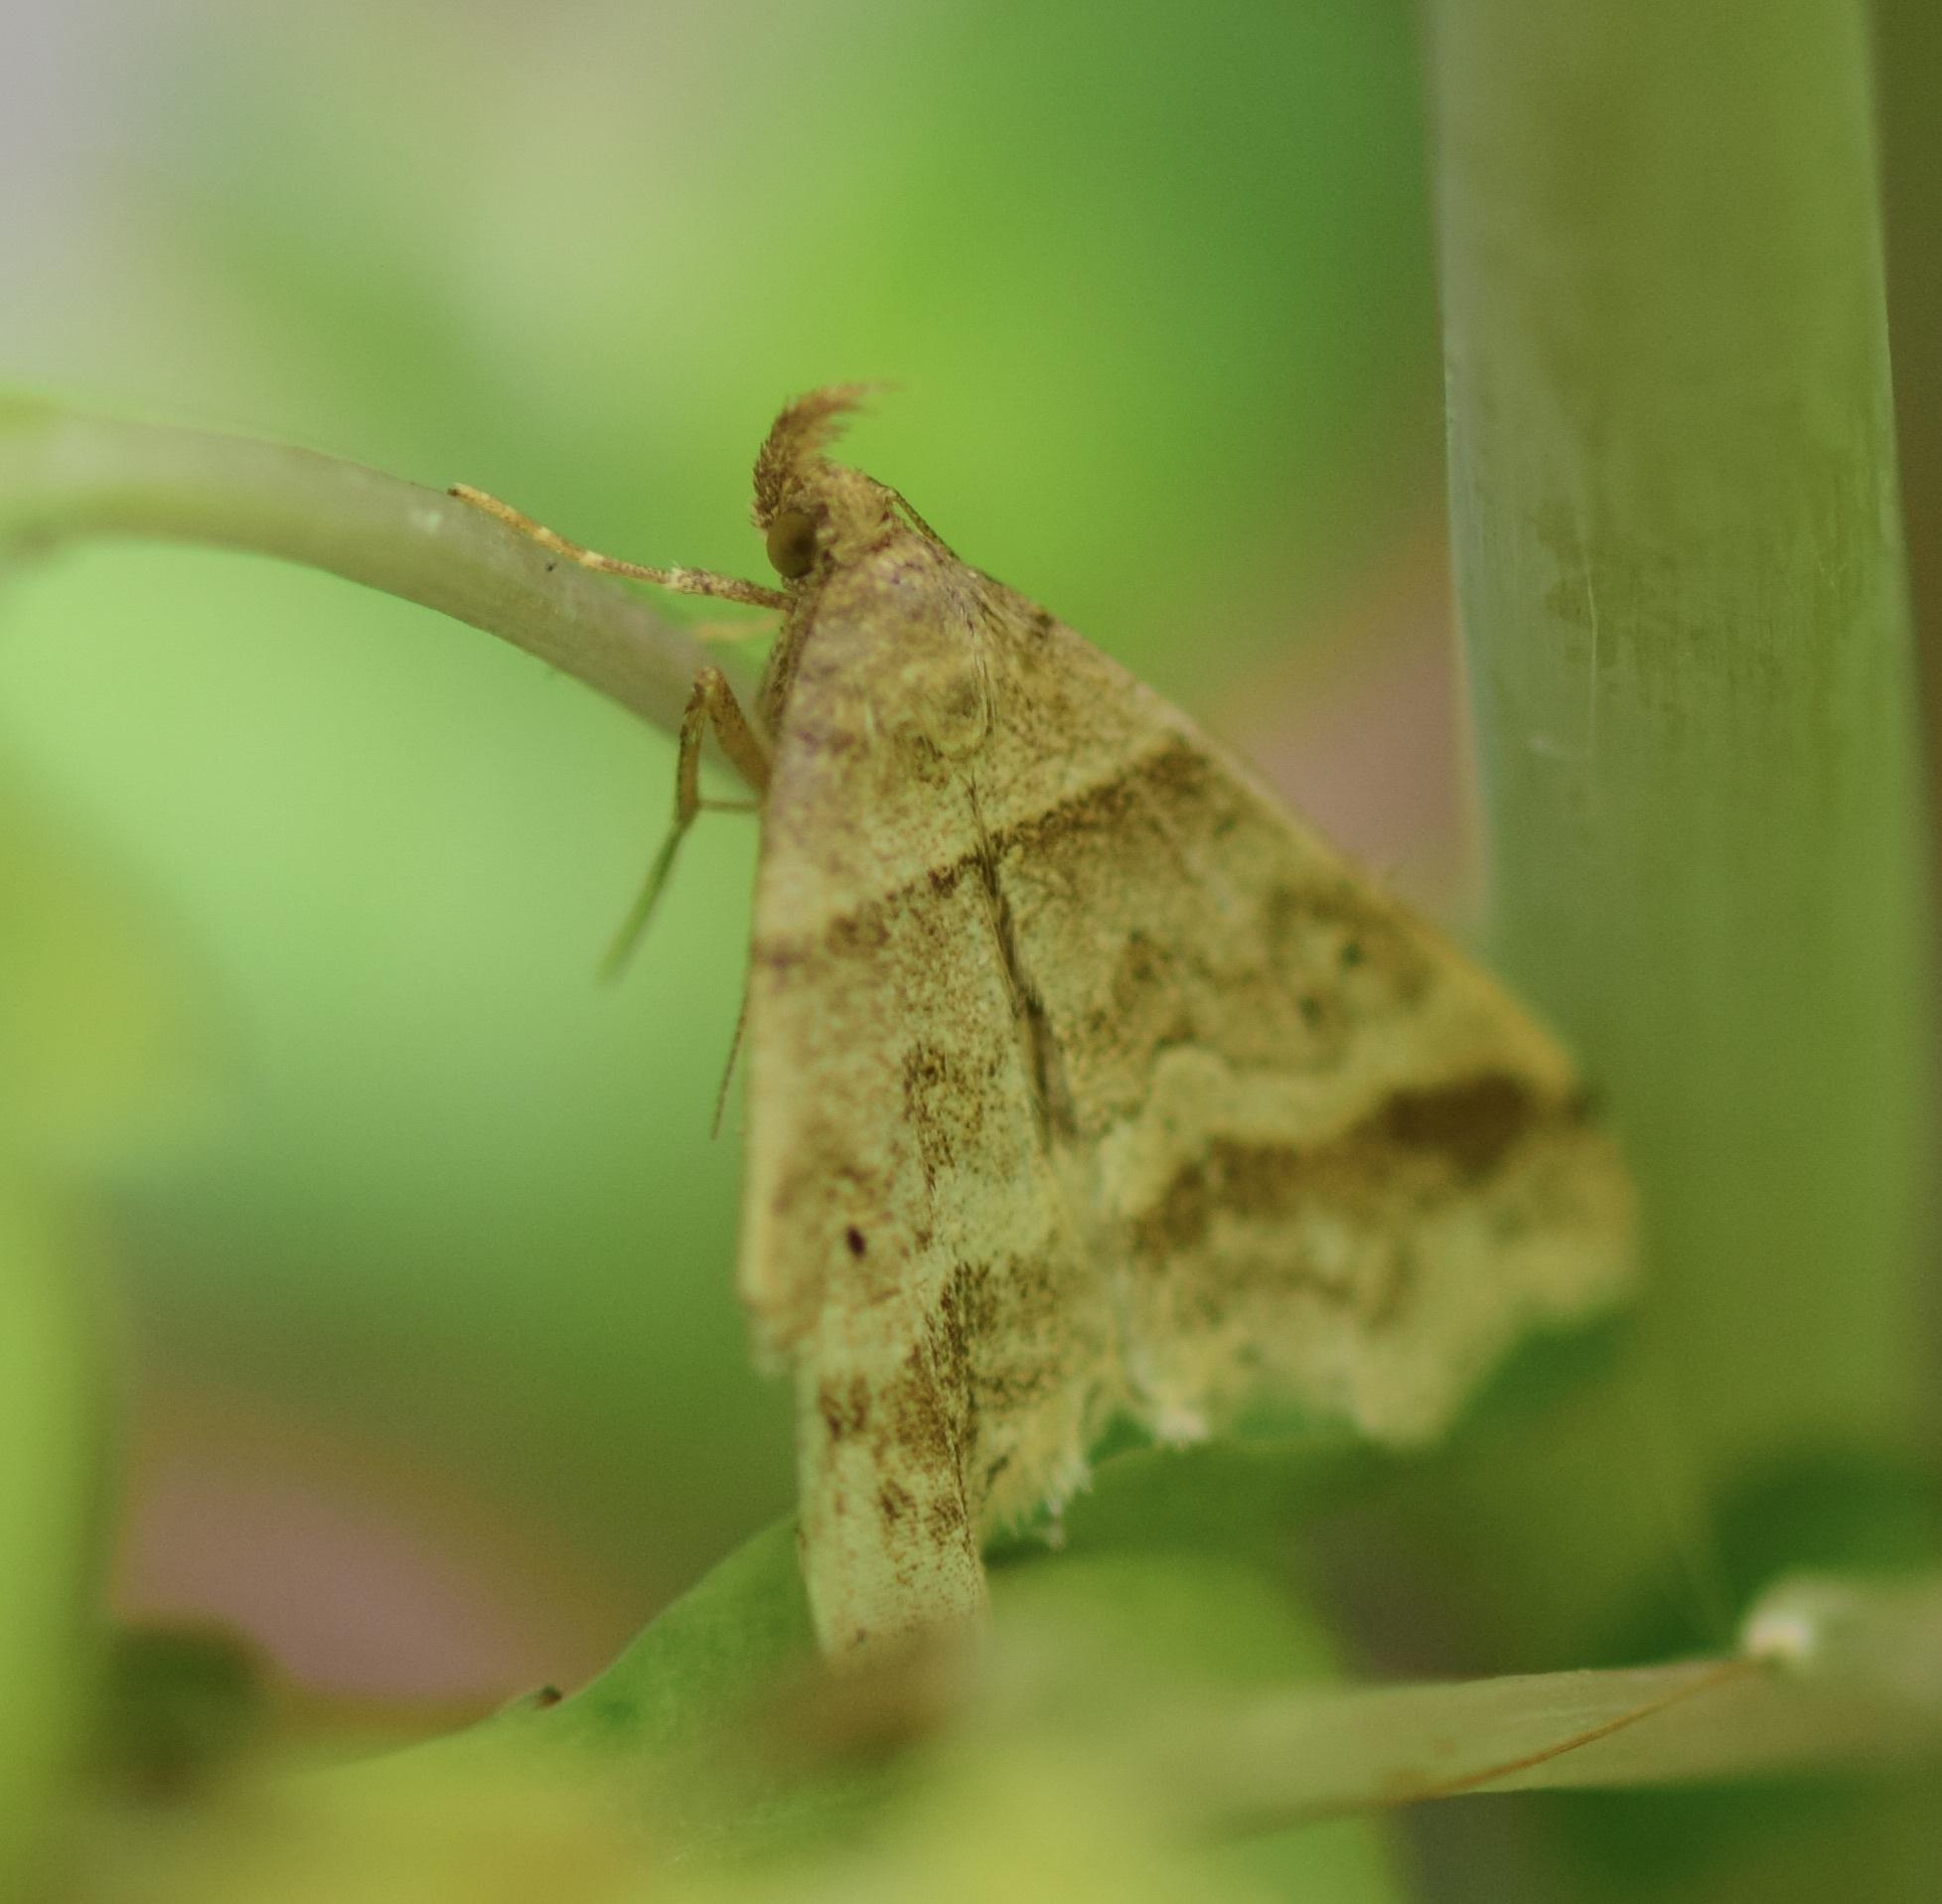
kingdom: Animalia
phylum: Arthropoda
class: Insecta
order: Lepidoptera
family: Erebidae
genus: Phaeolita
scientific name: Phaeolita pyramusalis
